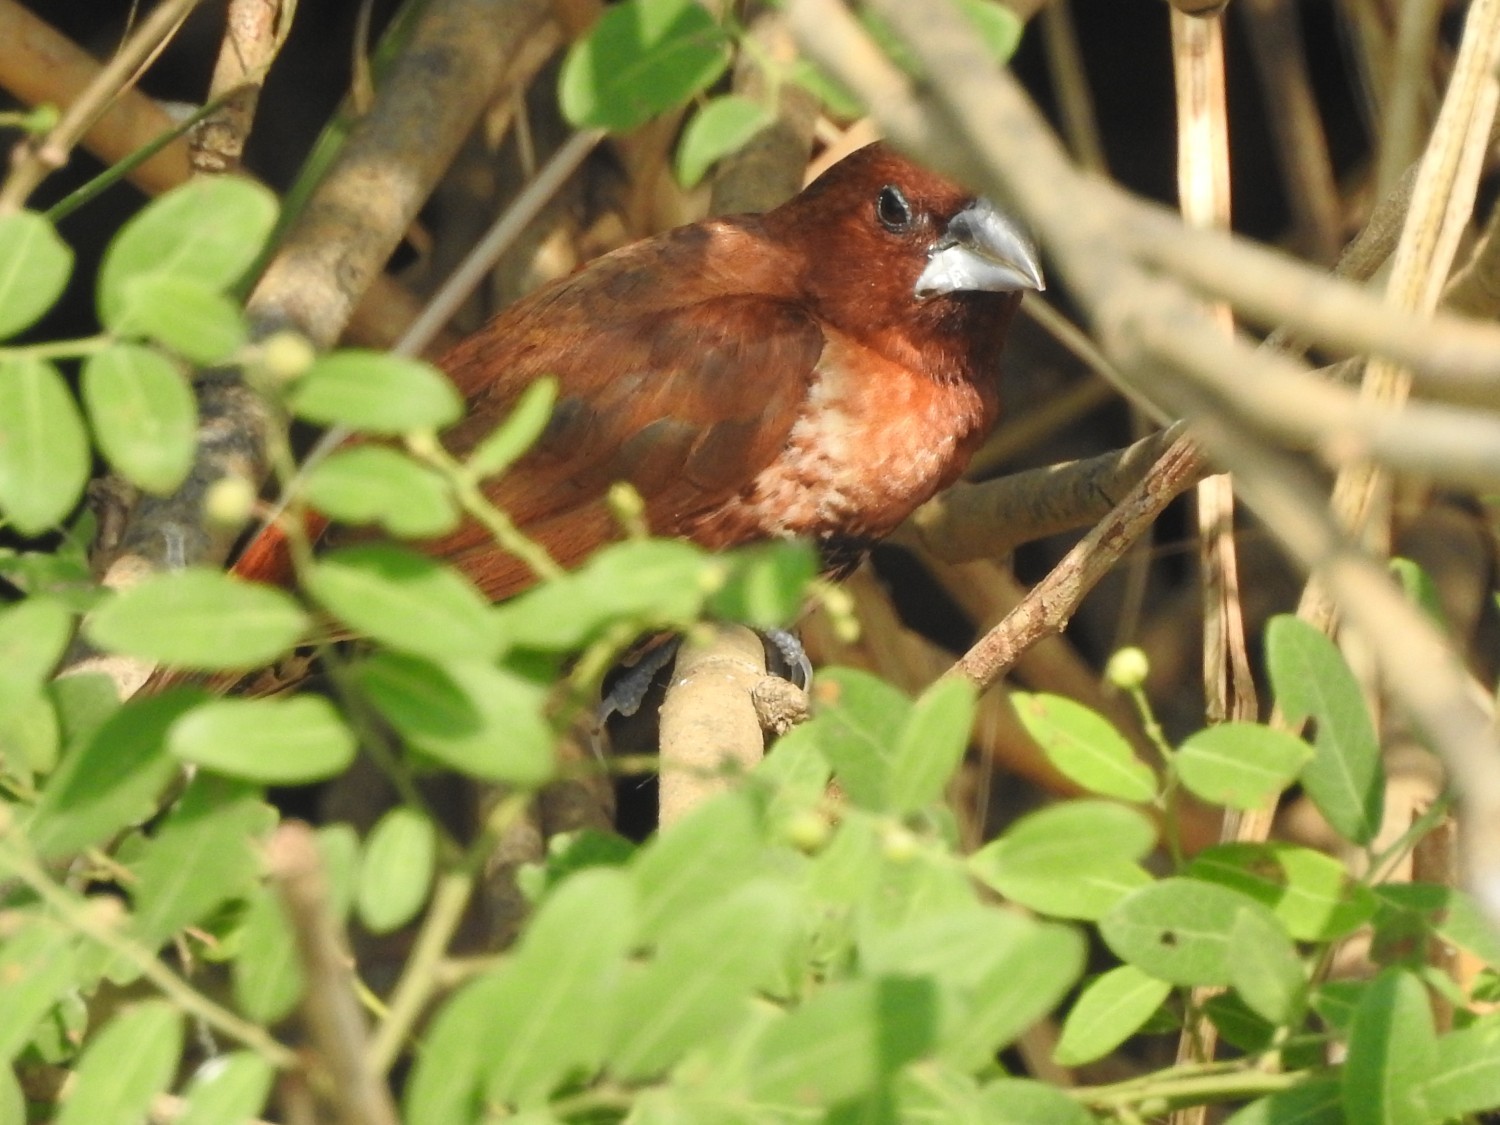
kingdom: Animalia
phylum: Chordata
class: Aves
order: Passeriformes
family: Estrildidae
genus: Lonchura
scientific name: Lonchura punctulata
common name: Scaly-breasted munia
